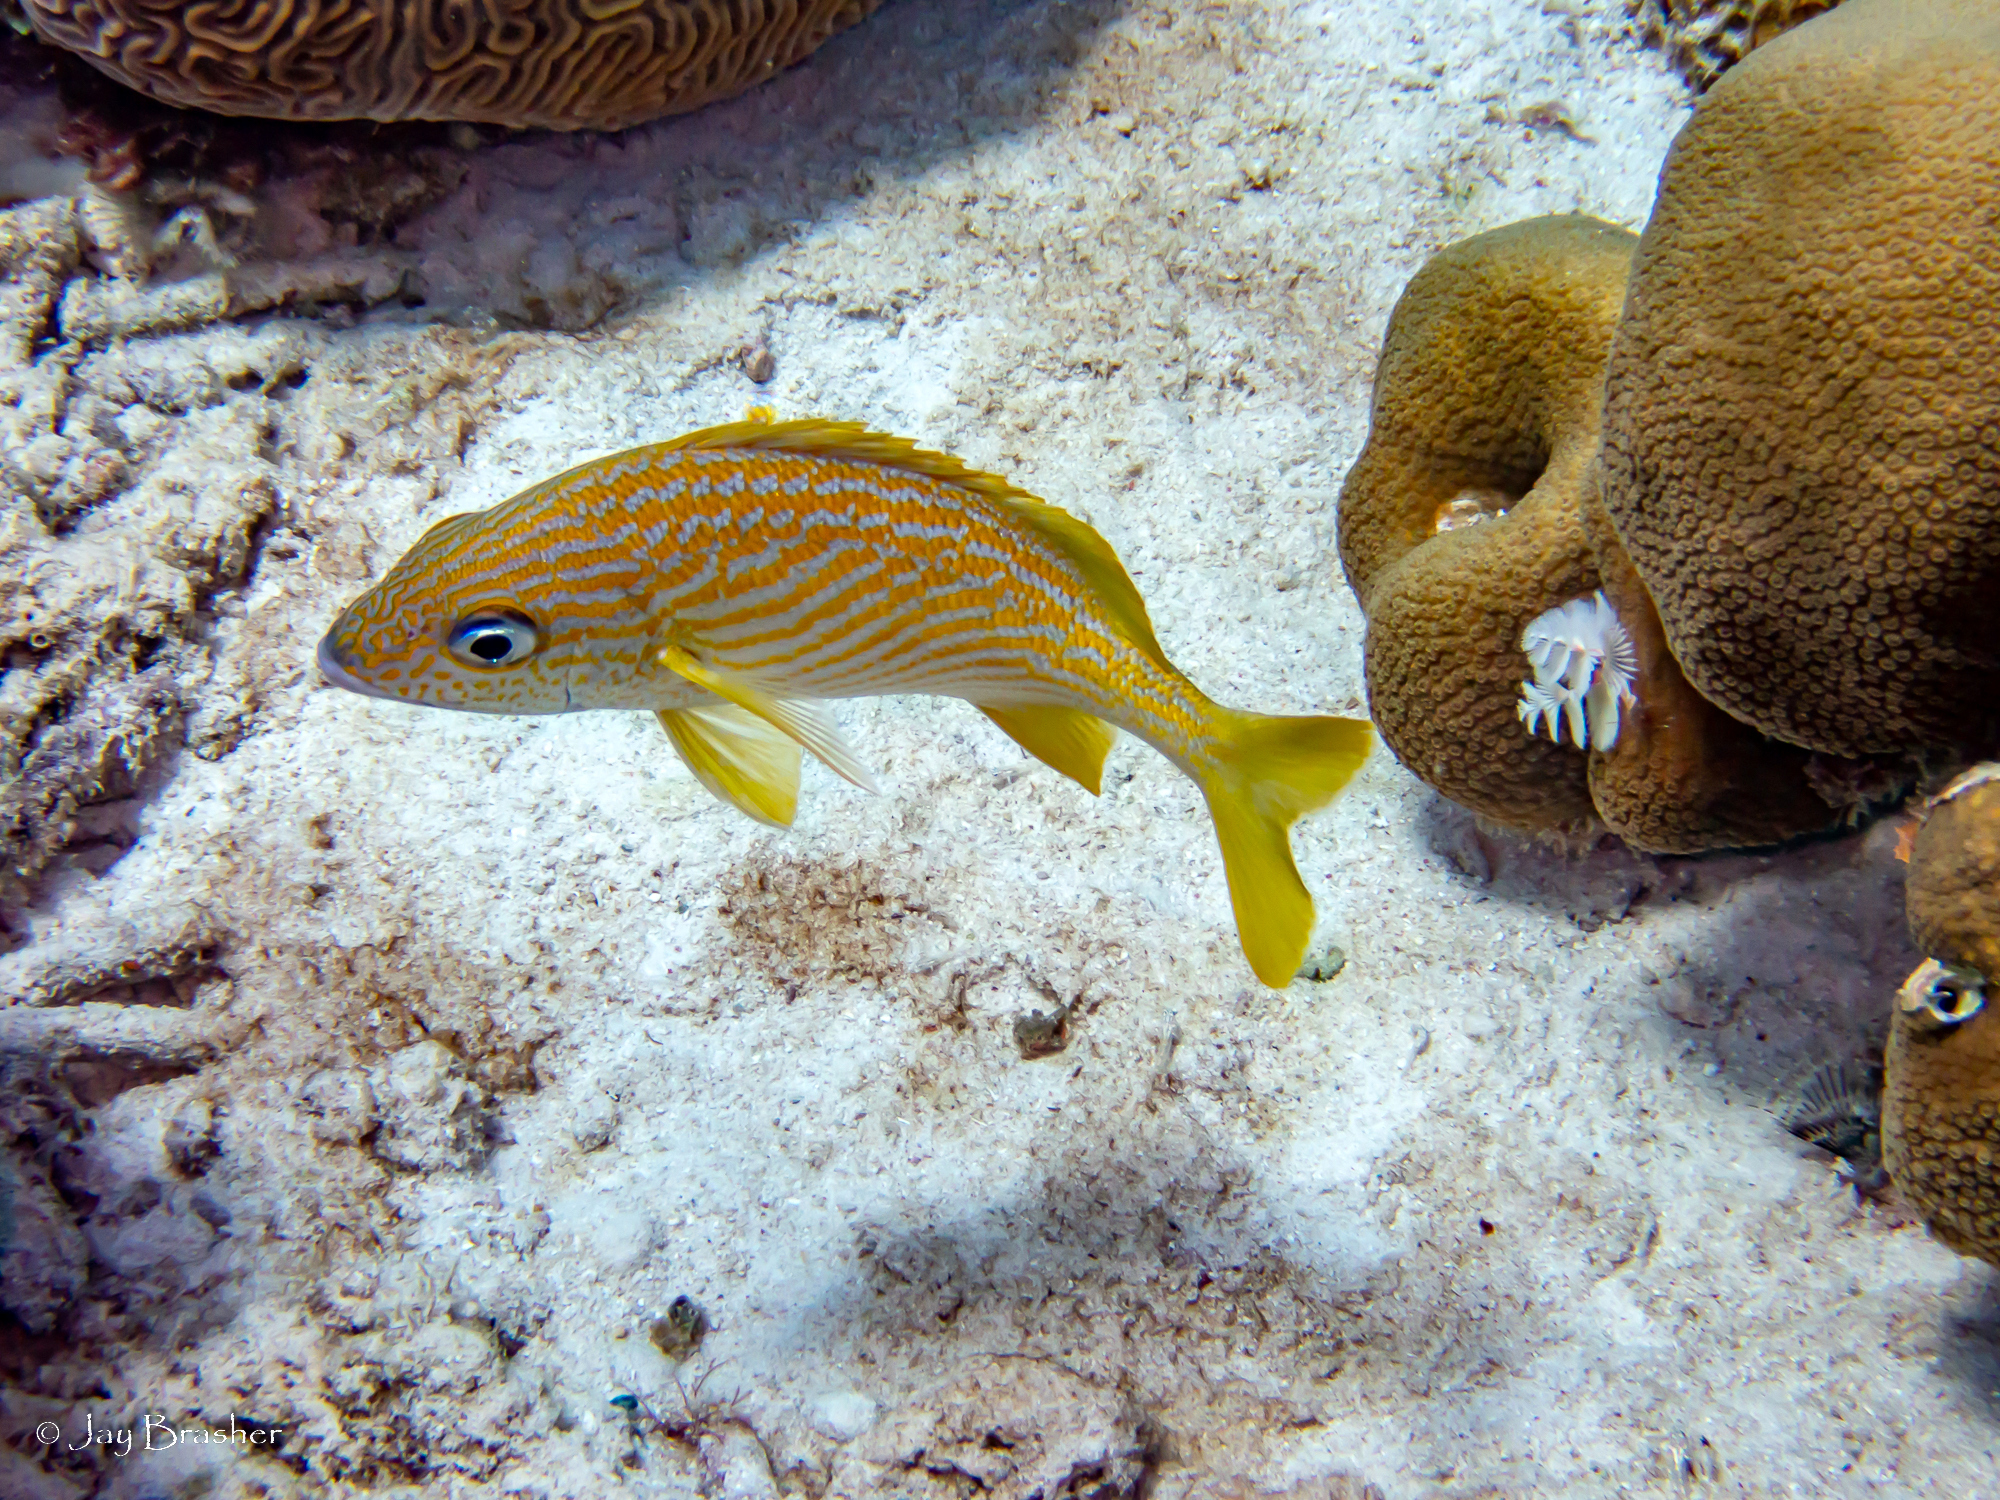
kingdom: Animalia
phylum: Chordata
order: Perciformes
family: Haemulidae
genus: Haemulon
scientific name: Haemulon flavolineatum
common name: French grunt
